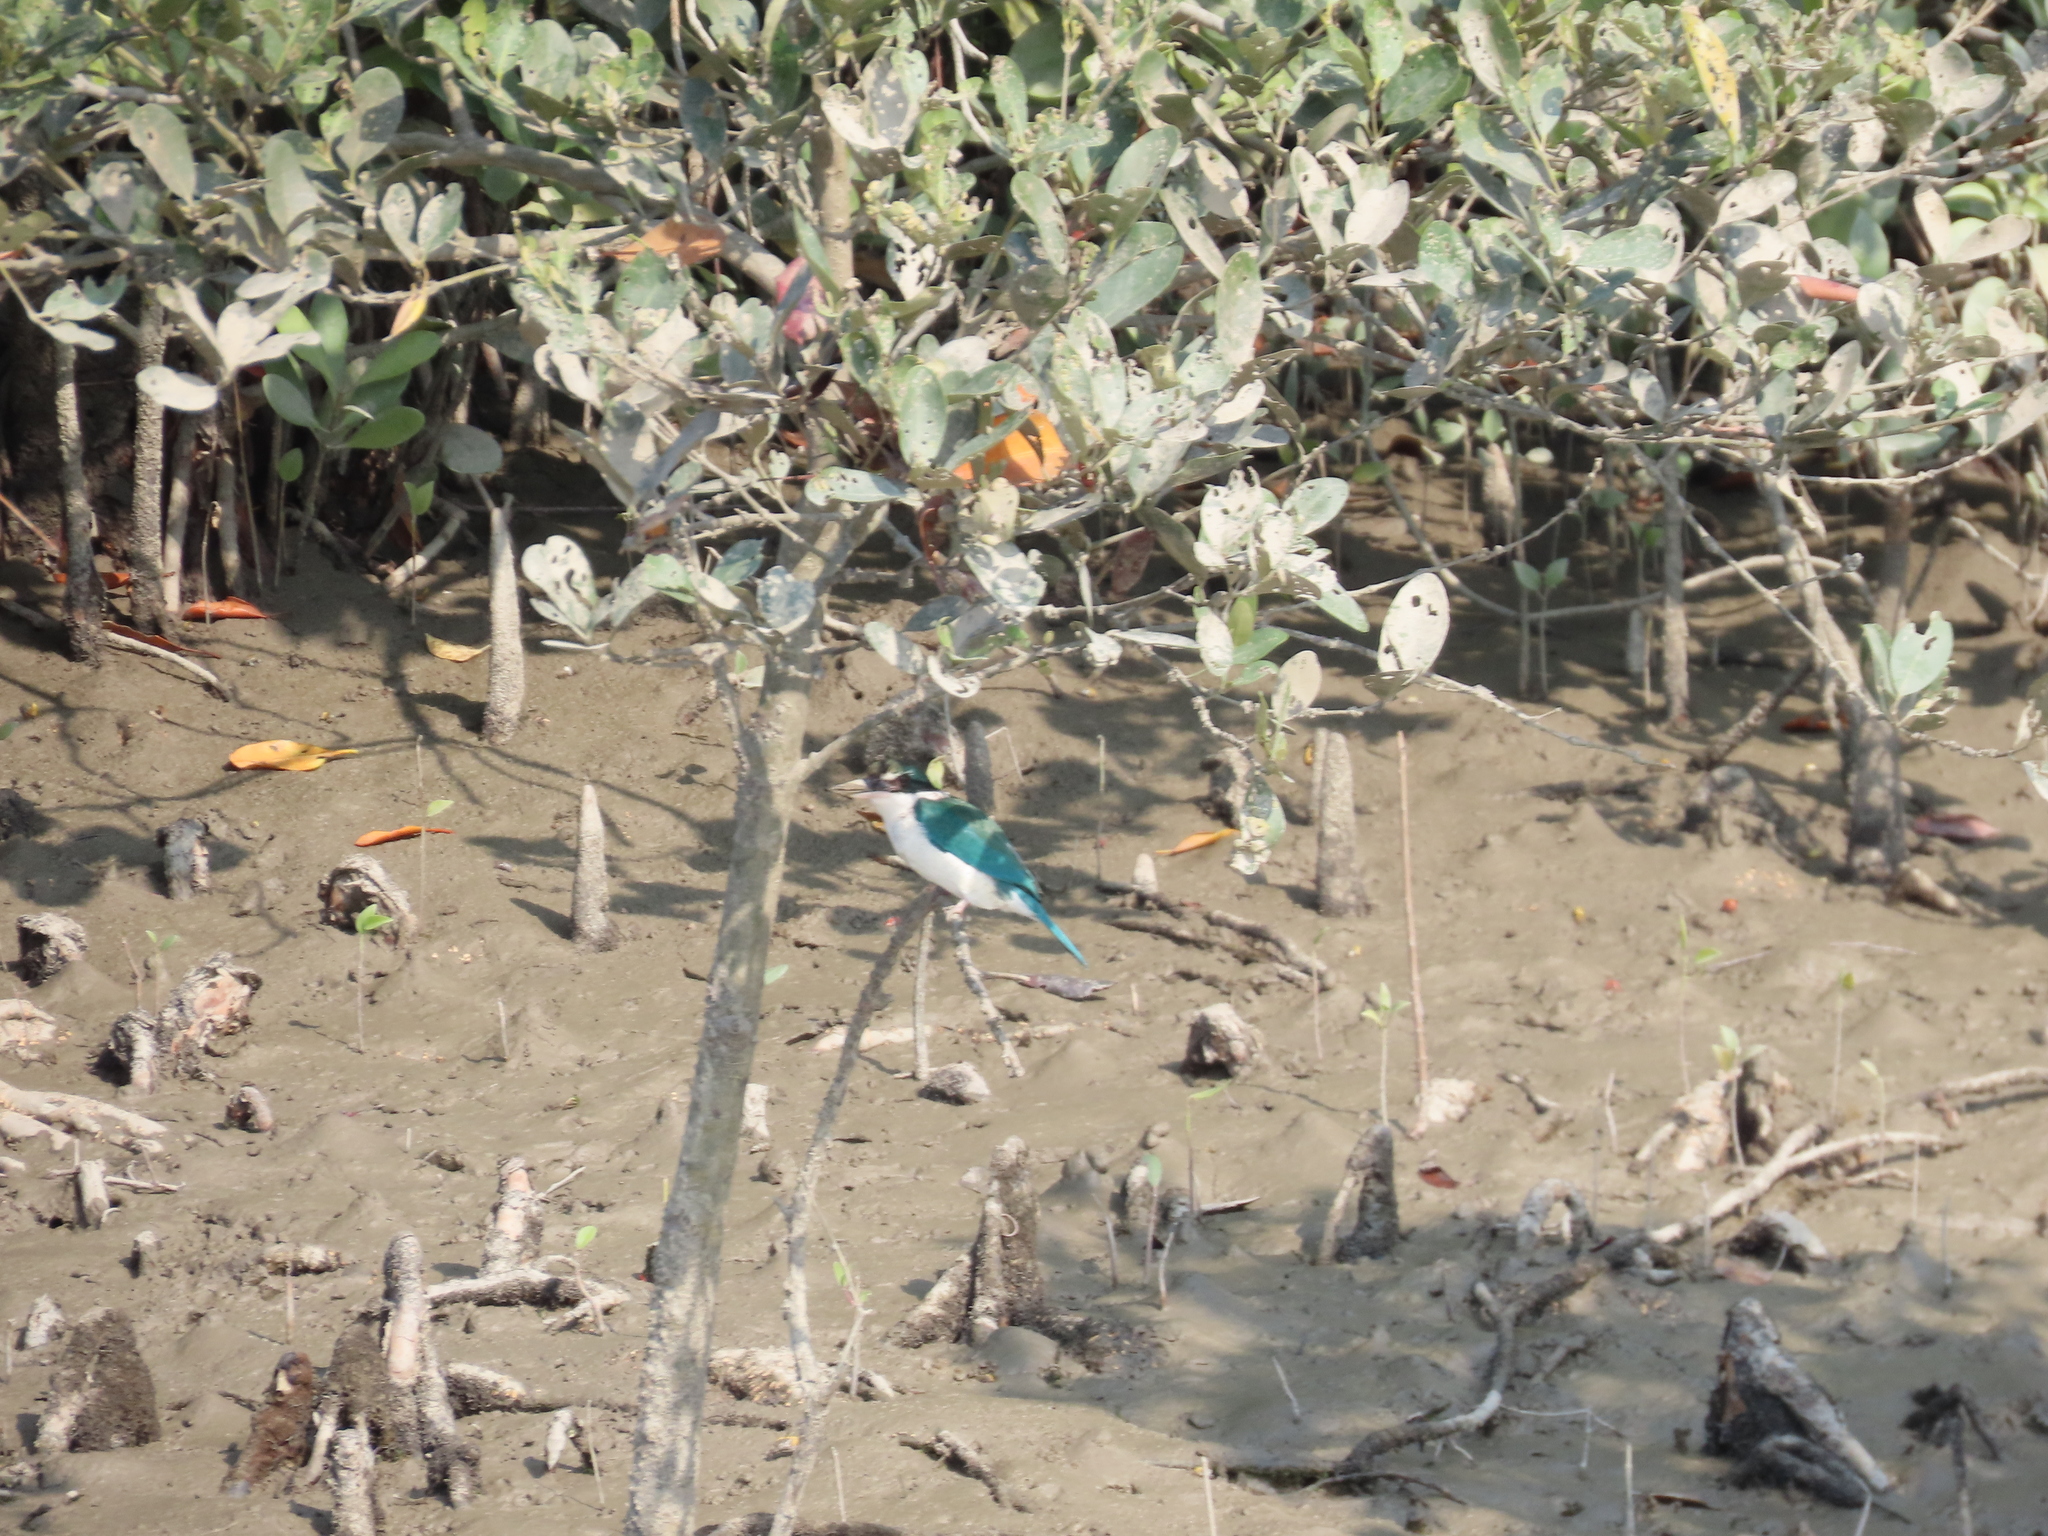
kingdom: Animalia
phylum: Chordata
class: Aves
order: Coraciiformes
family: Alcedinidae
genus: Todiramphus
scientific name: Todiramphus chloris
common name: Collared kingfisher
